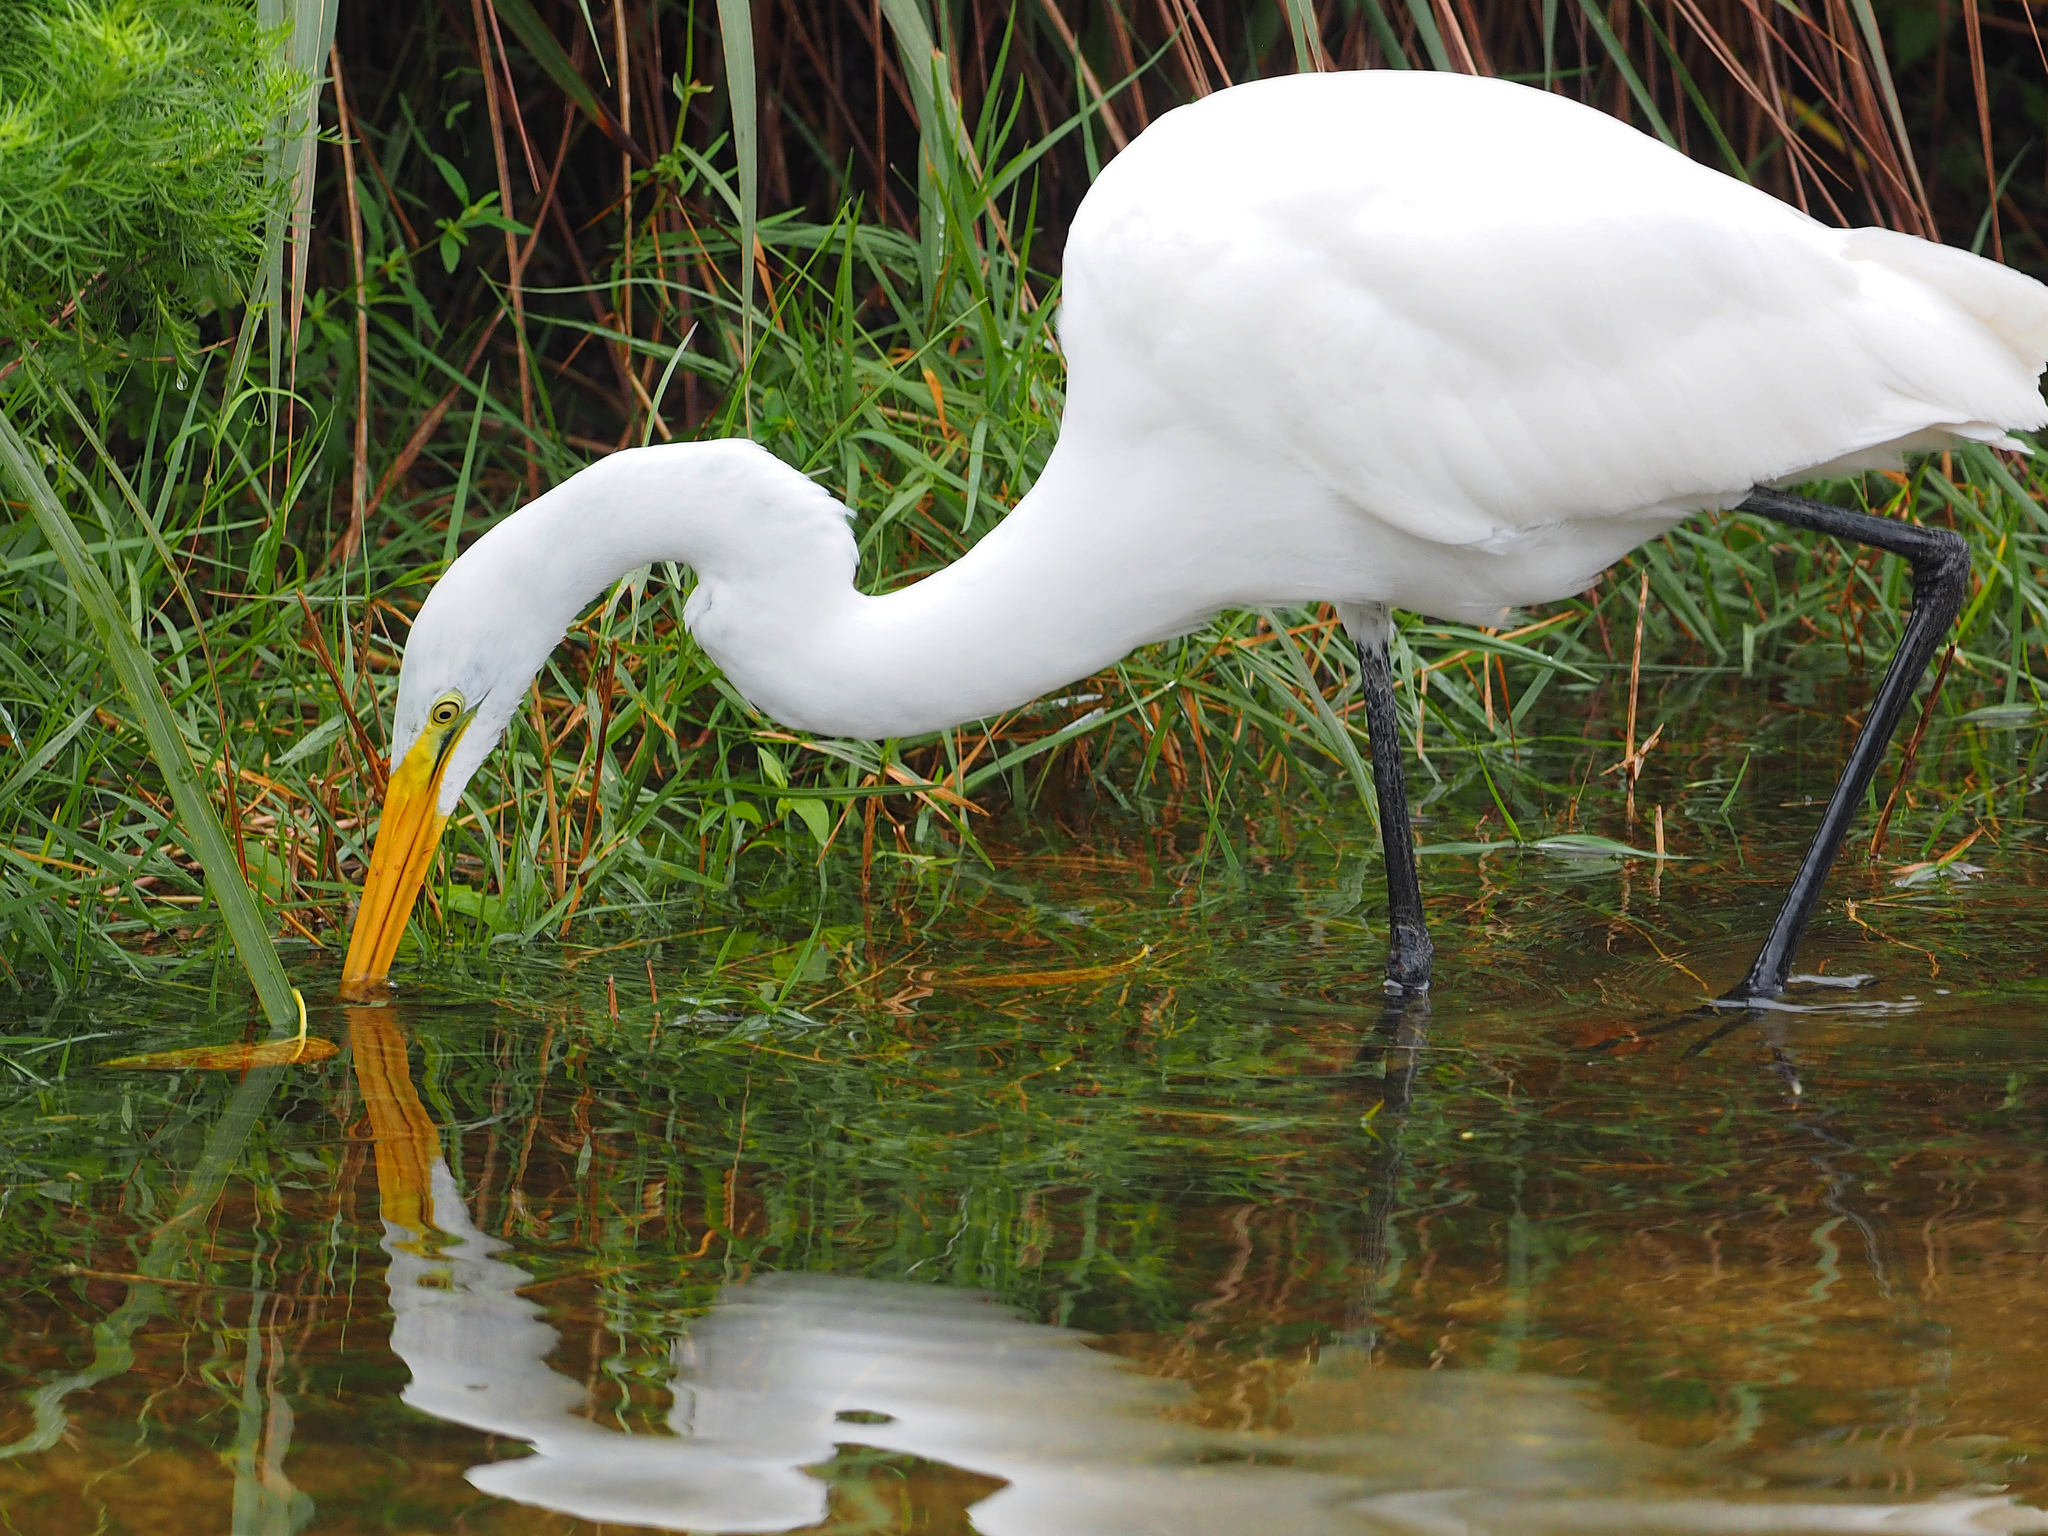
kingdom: Animalia
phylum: Chordata
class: Aves
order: Pelecaniformes
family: Ardeidae
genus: Ardea
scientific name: Ardea alba
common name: Great egret
